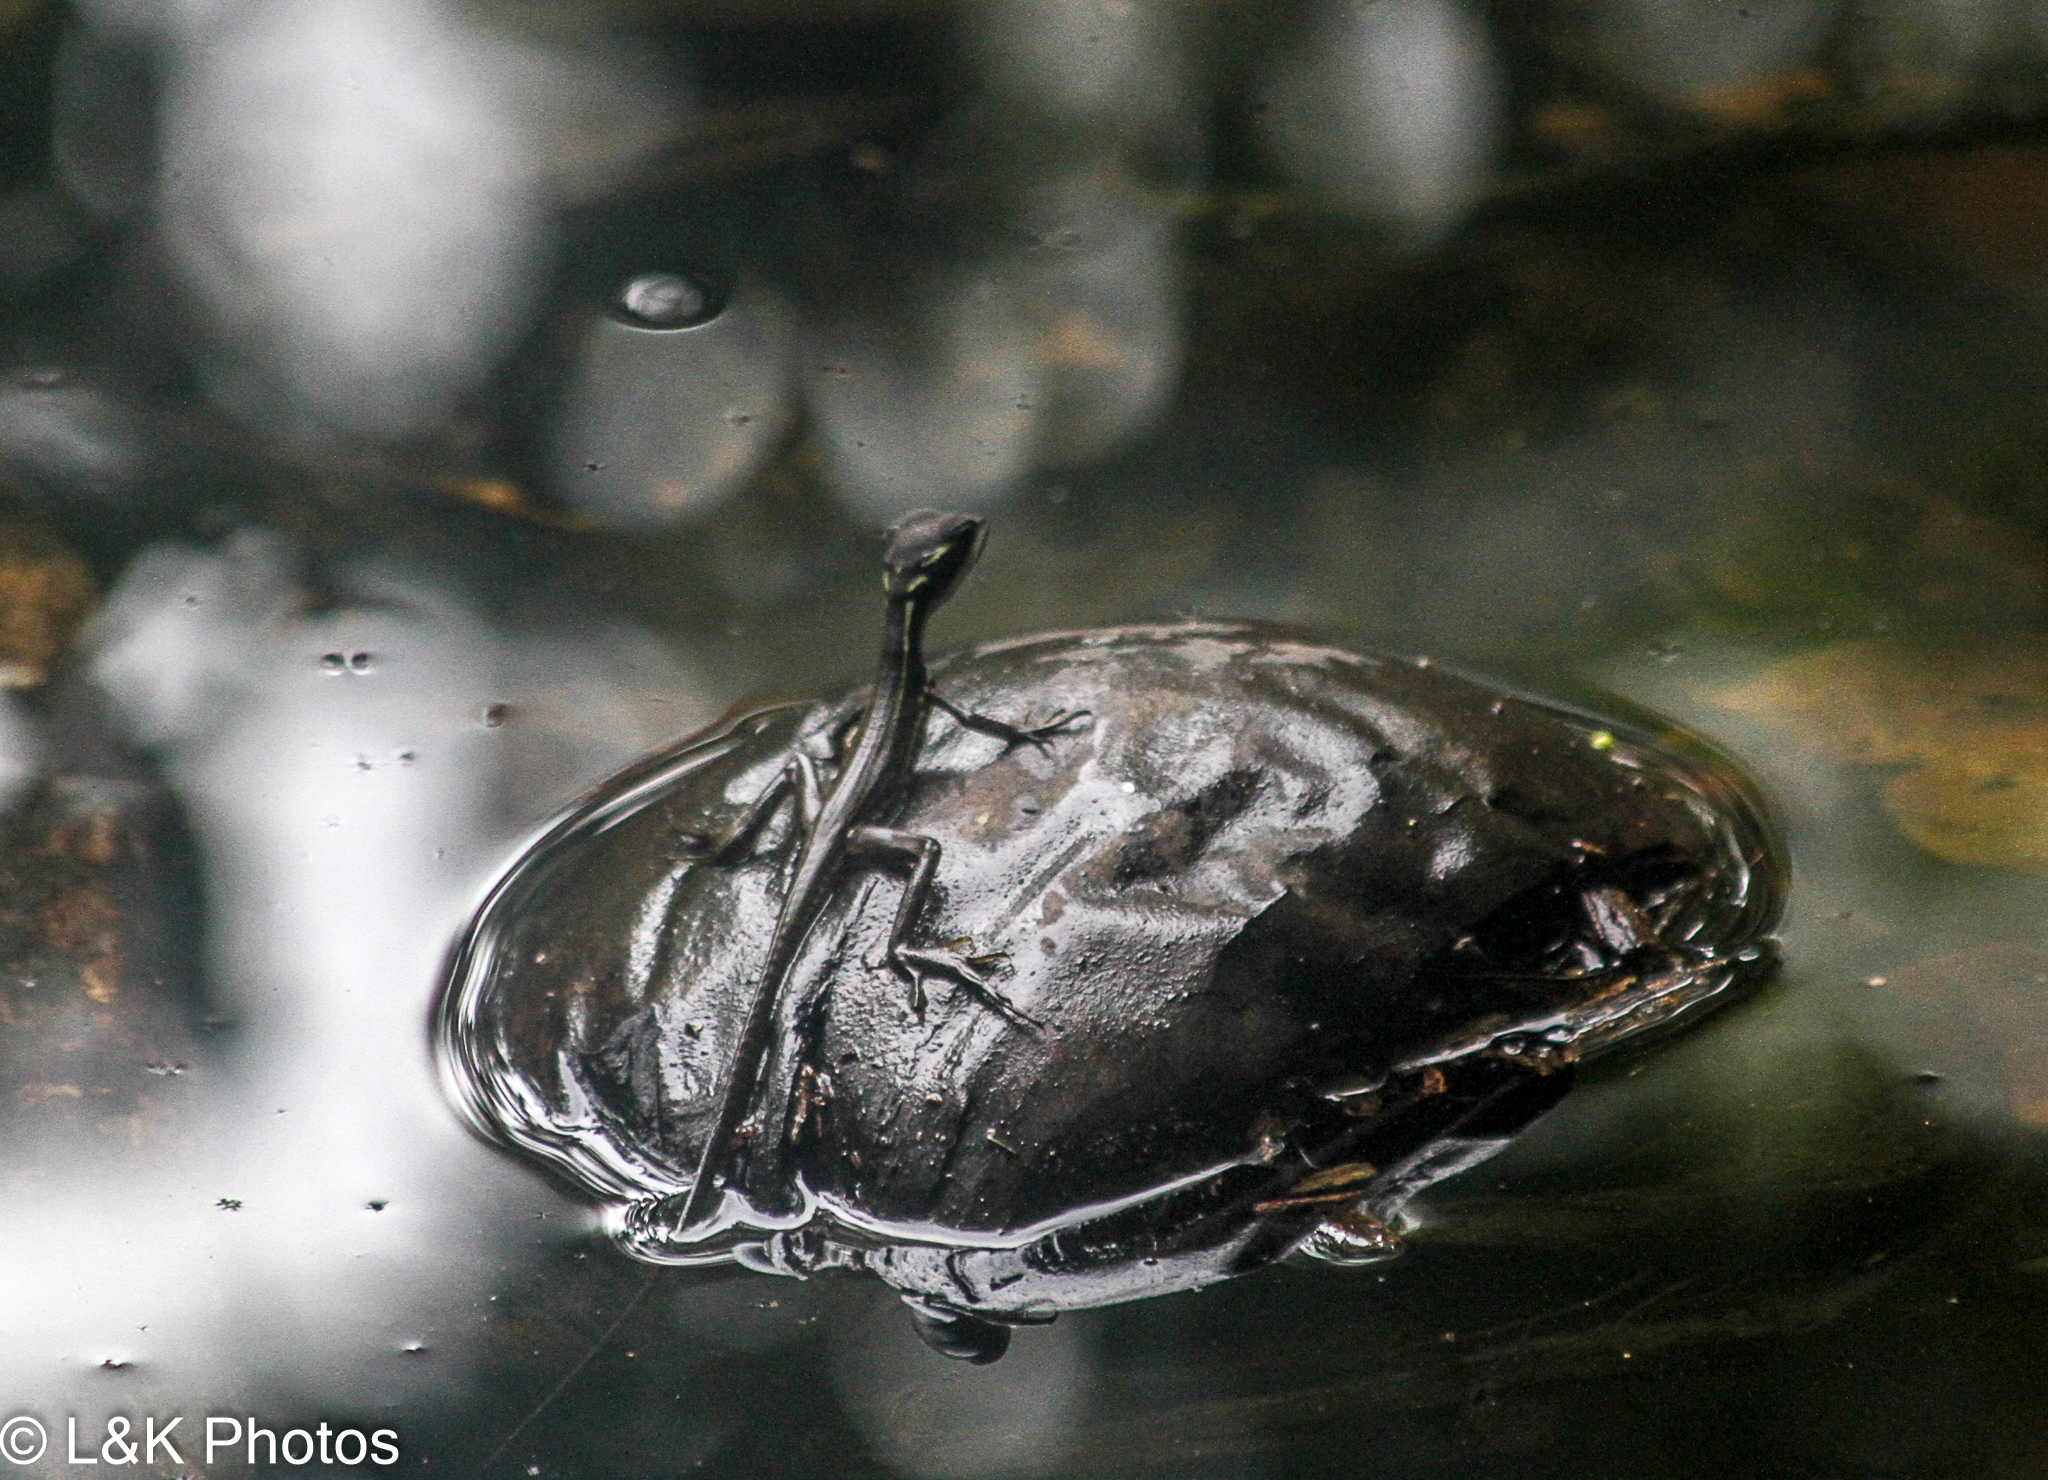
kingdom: Animalia
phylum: Chordata
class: Squamata
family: Corytophanidae
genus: Basiliscus
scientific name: Basiliscus basiliscus
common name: Common basilisk
